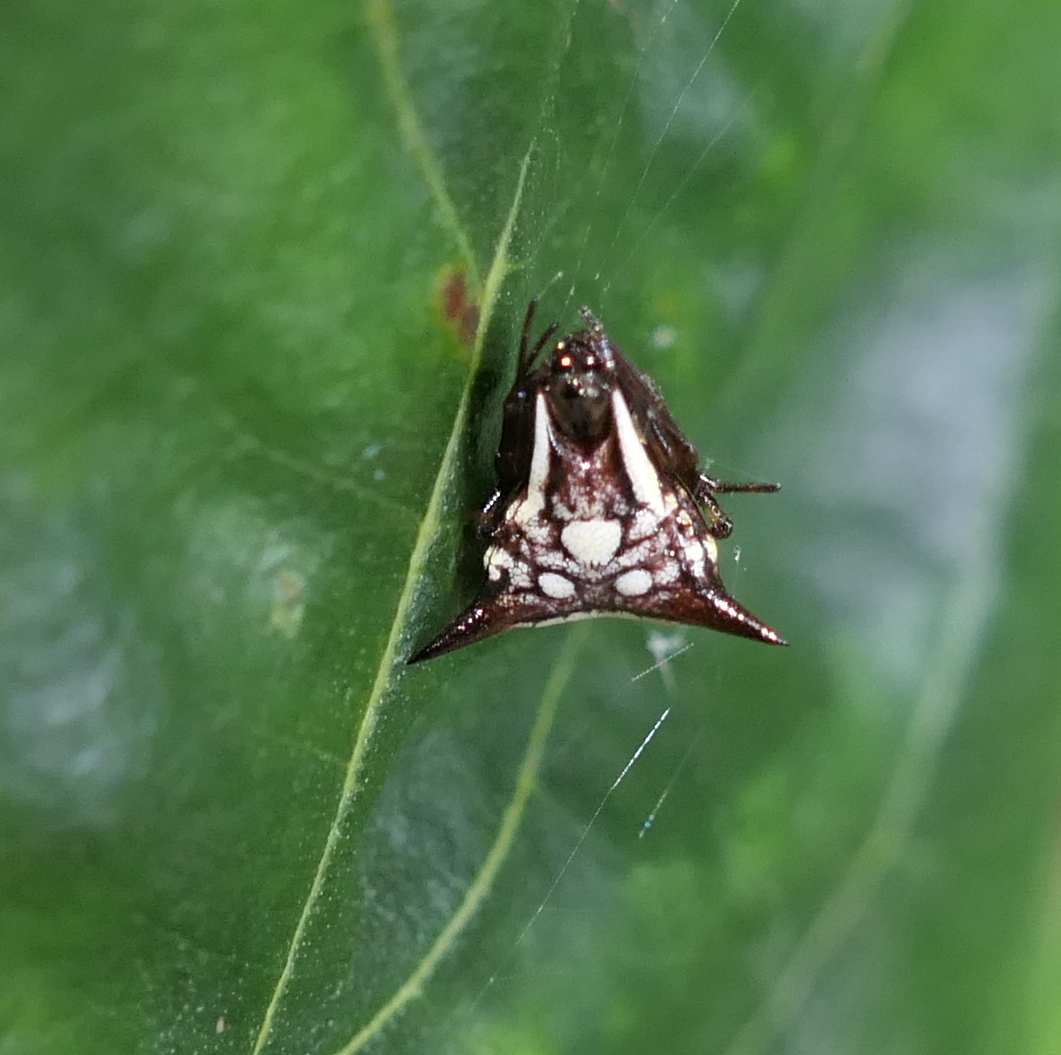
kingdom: Animalia
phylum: Arthropoda
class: Arachnida
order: Araneae
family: Araneidae
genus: Micrathena
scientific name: Micrathena evansi
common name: Orb weavers
